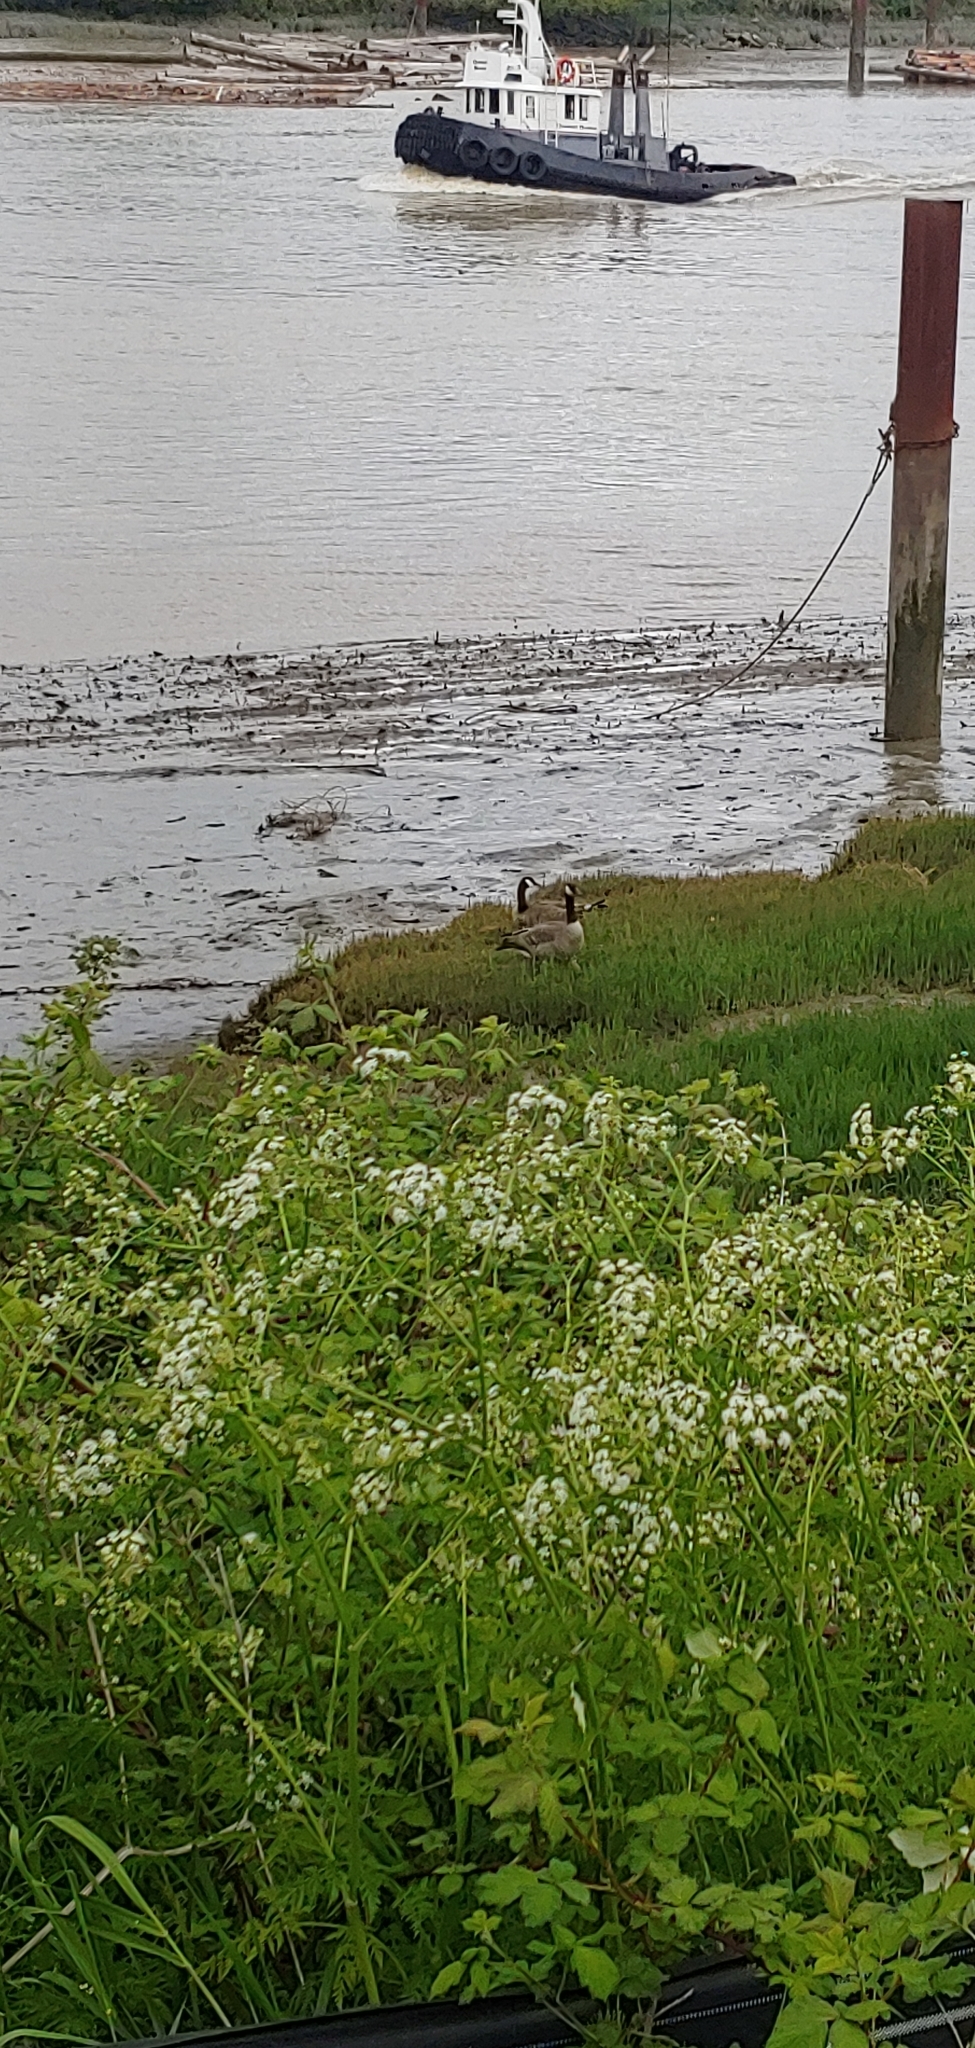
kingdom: Animalia
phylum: Chordata
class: Aves
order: Anseriformes
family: Anatidae
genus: Branta
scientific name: Branta canadensis
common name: Canada goose
